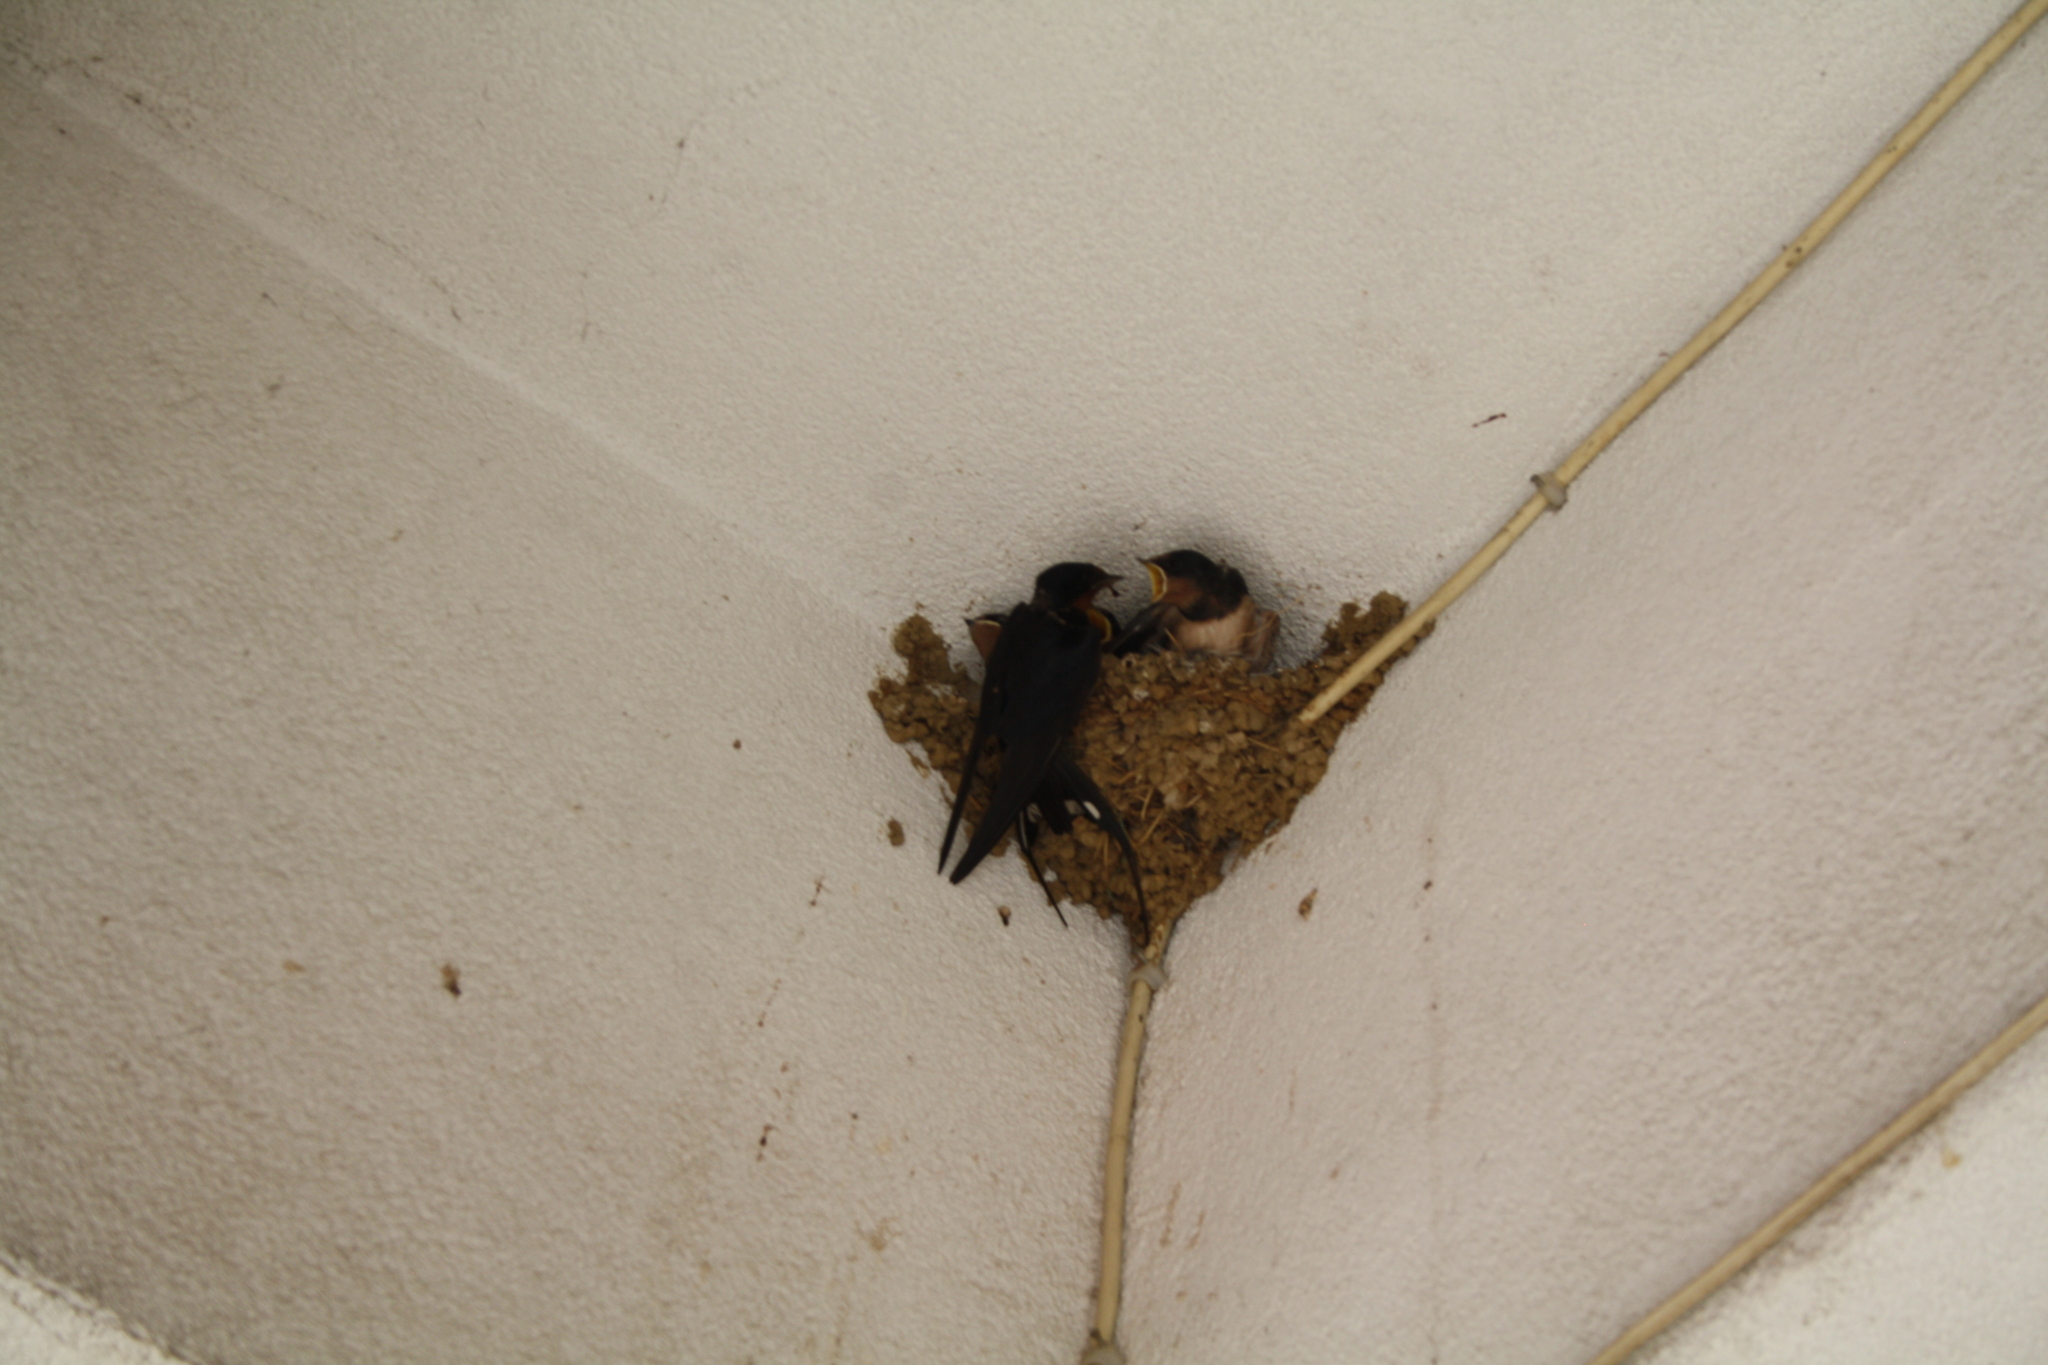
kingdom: Animalia
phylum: Chordata
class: Aves
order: Passeriformes
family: Hirundinidae
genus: Hirundo
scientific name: Hirundo rustica
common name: Barn swallow
